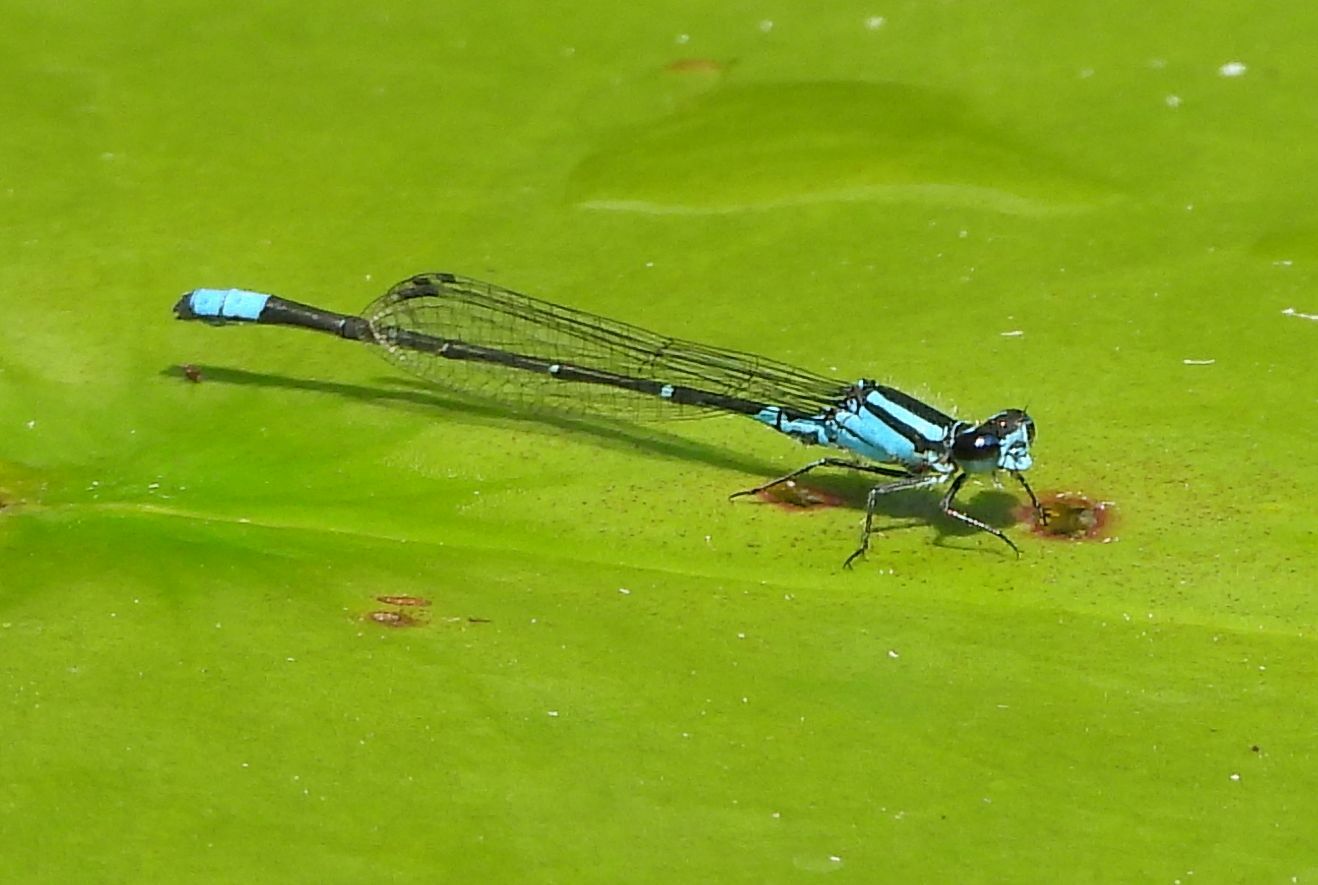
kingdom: Animalia
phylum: Arthropoda
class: Insecta
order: Odonata
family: Coenagrionidae
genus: Enallagma
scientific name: Enallagma geminatum
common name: Skimming bluet
